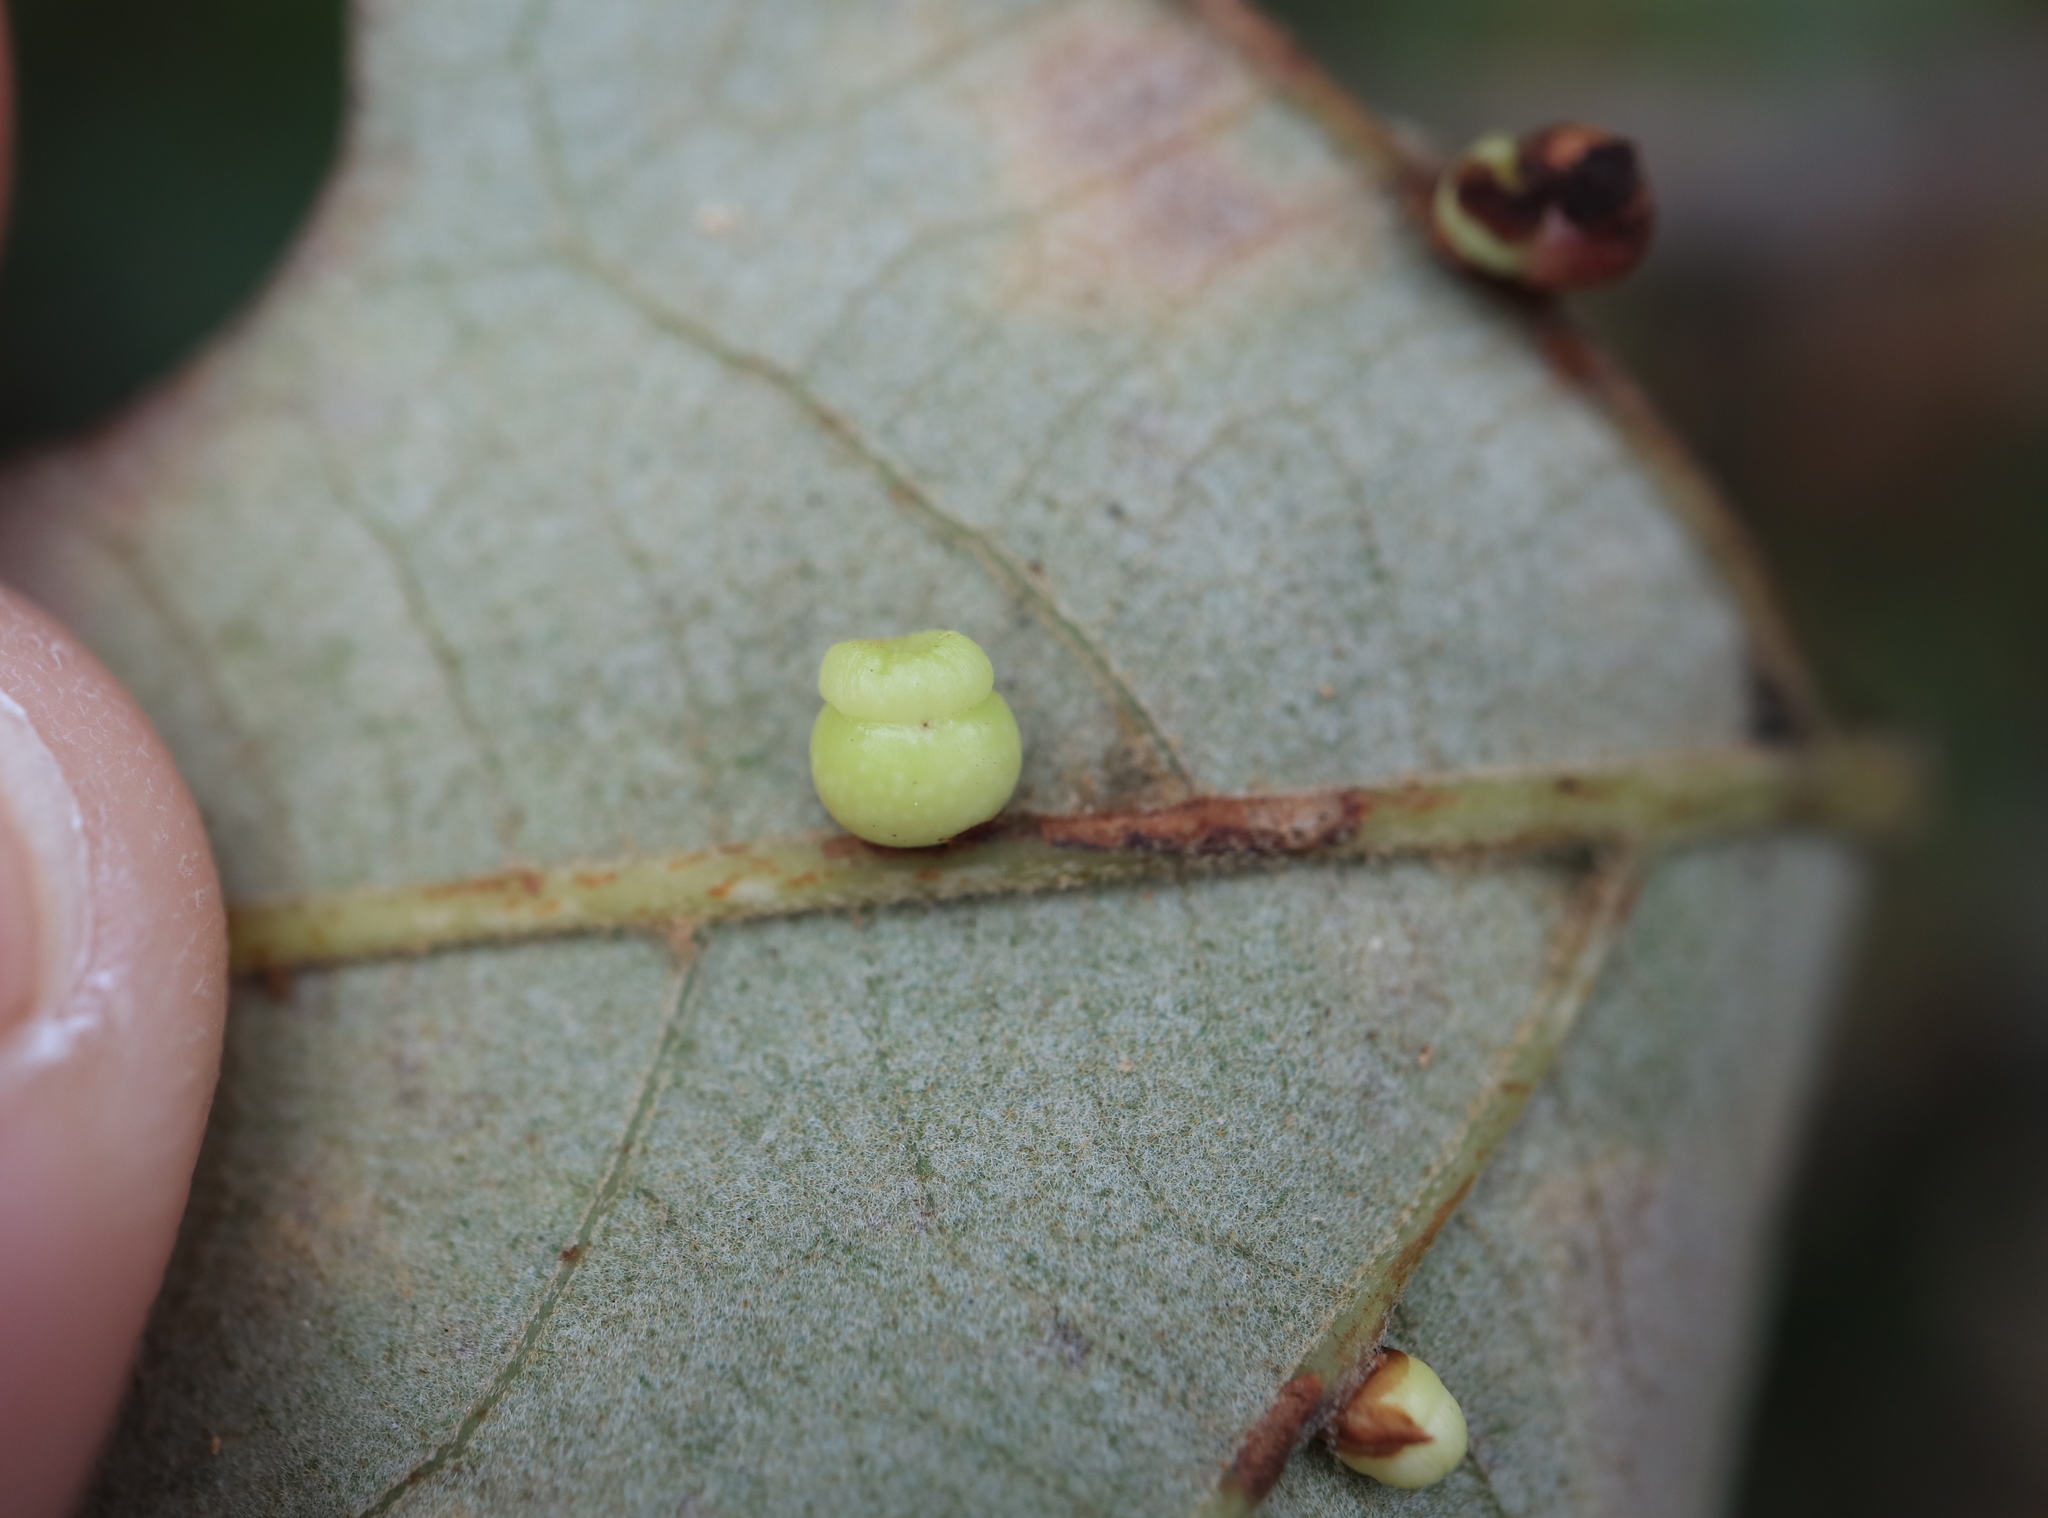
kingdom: Animalia
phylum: Arthropoda
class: Insecta
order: Hymenoptera
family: Cynipidae
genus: Kokkocynips
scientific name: Kokkocynips rileyi
